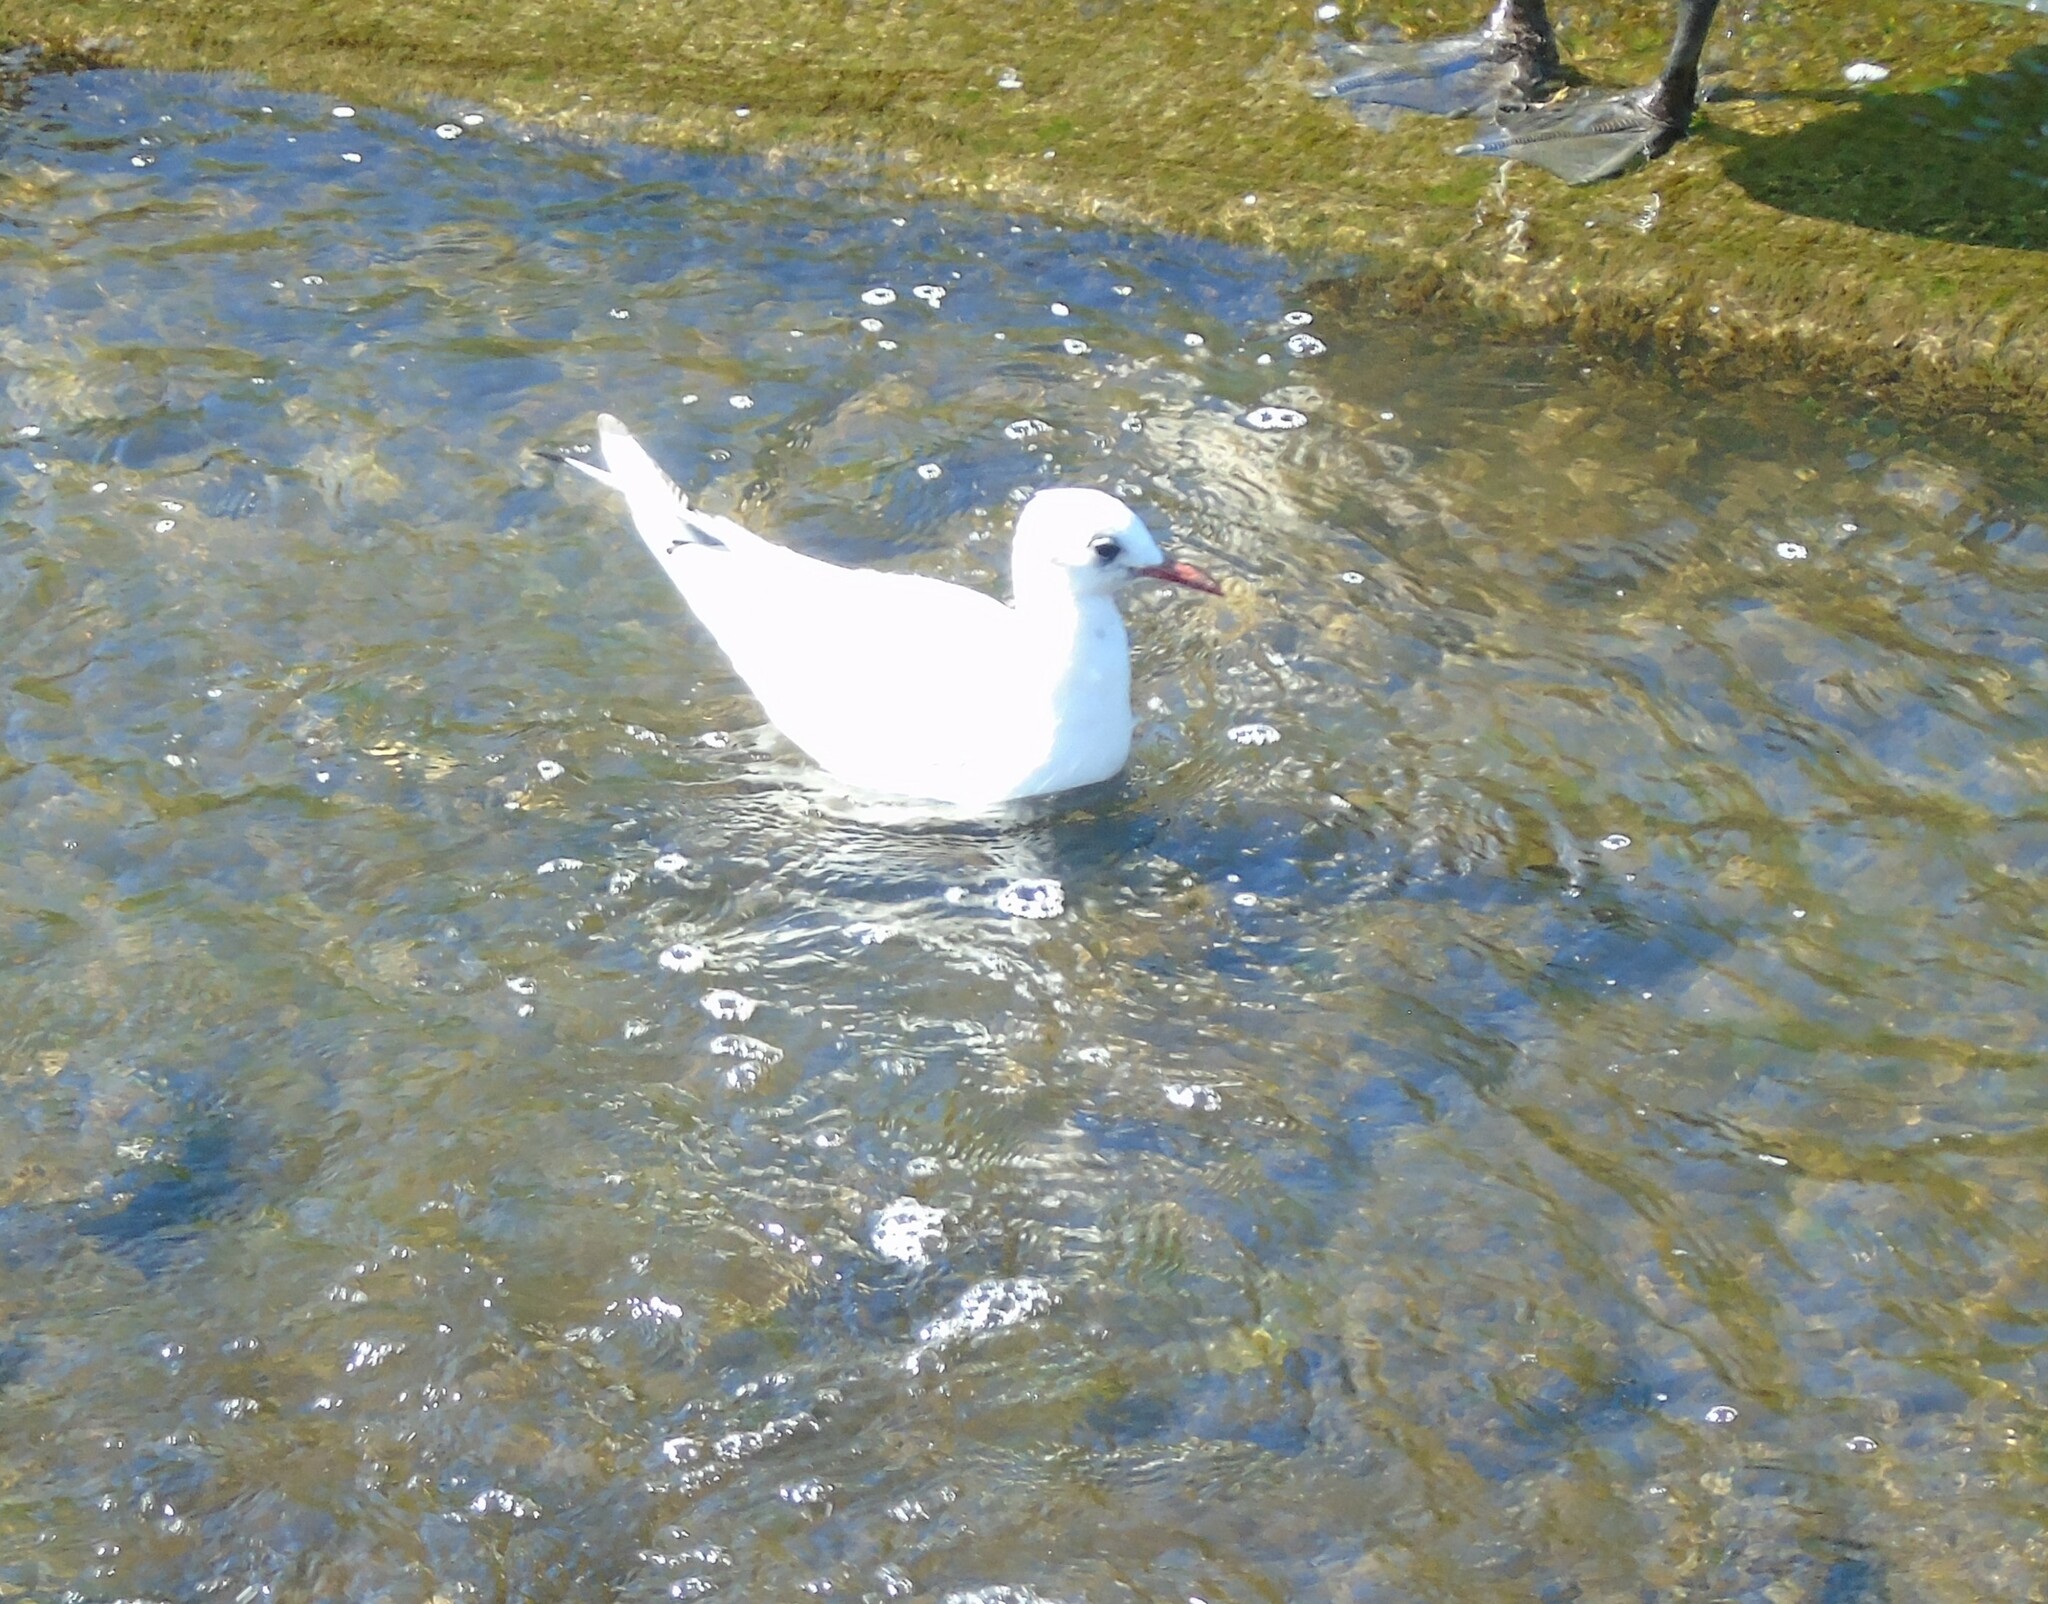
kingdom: Animalia
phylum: Chordata
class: Aves
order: Charadriiformes
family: Laridae
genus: Chroicocephalus
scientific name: Chroicocephalus ridibundus
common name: Black-headed gull
